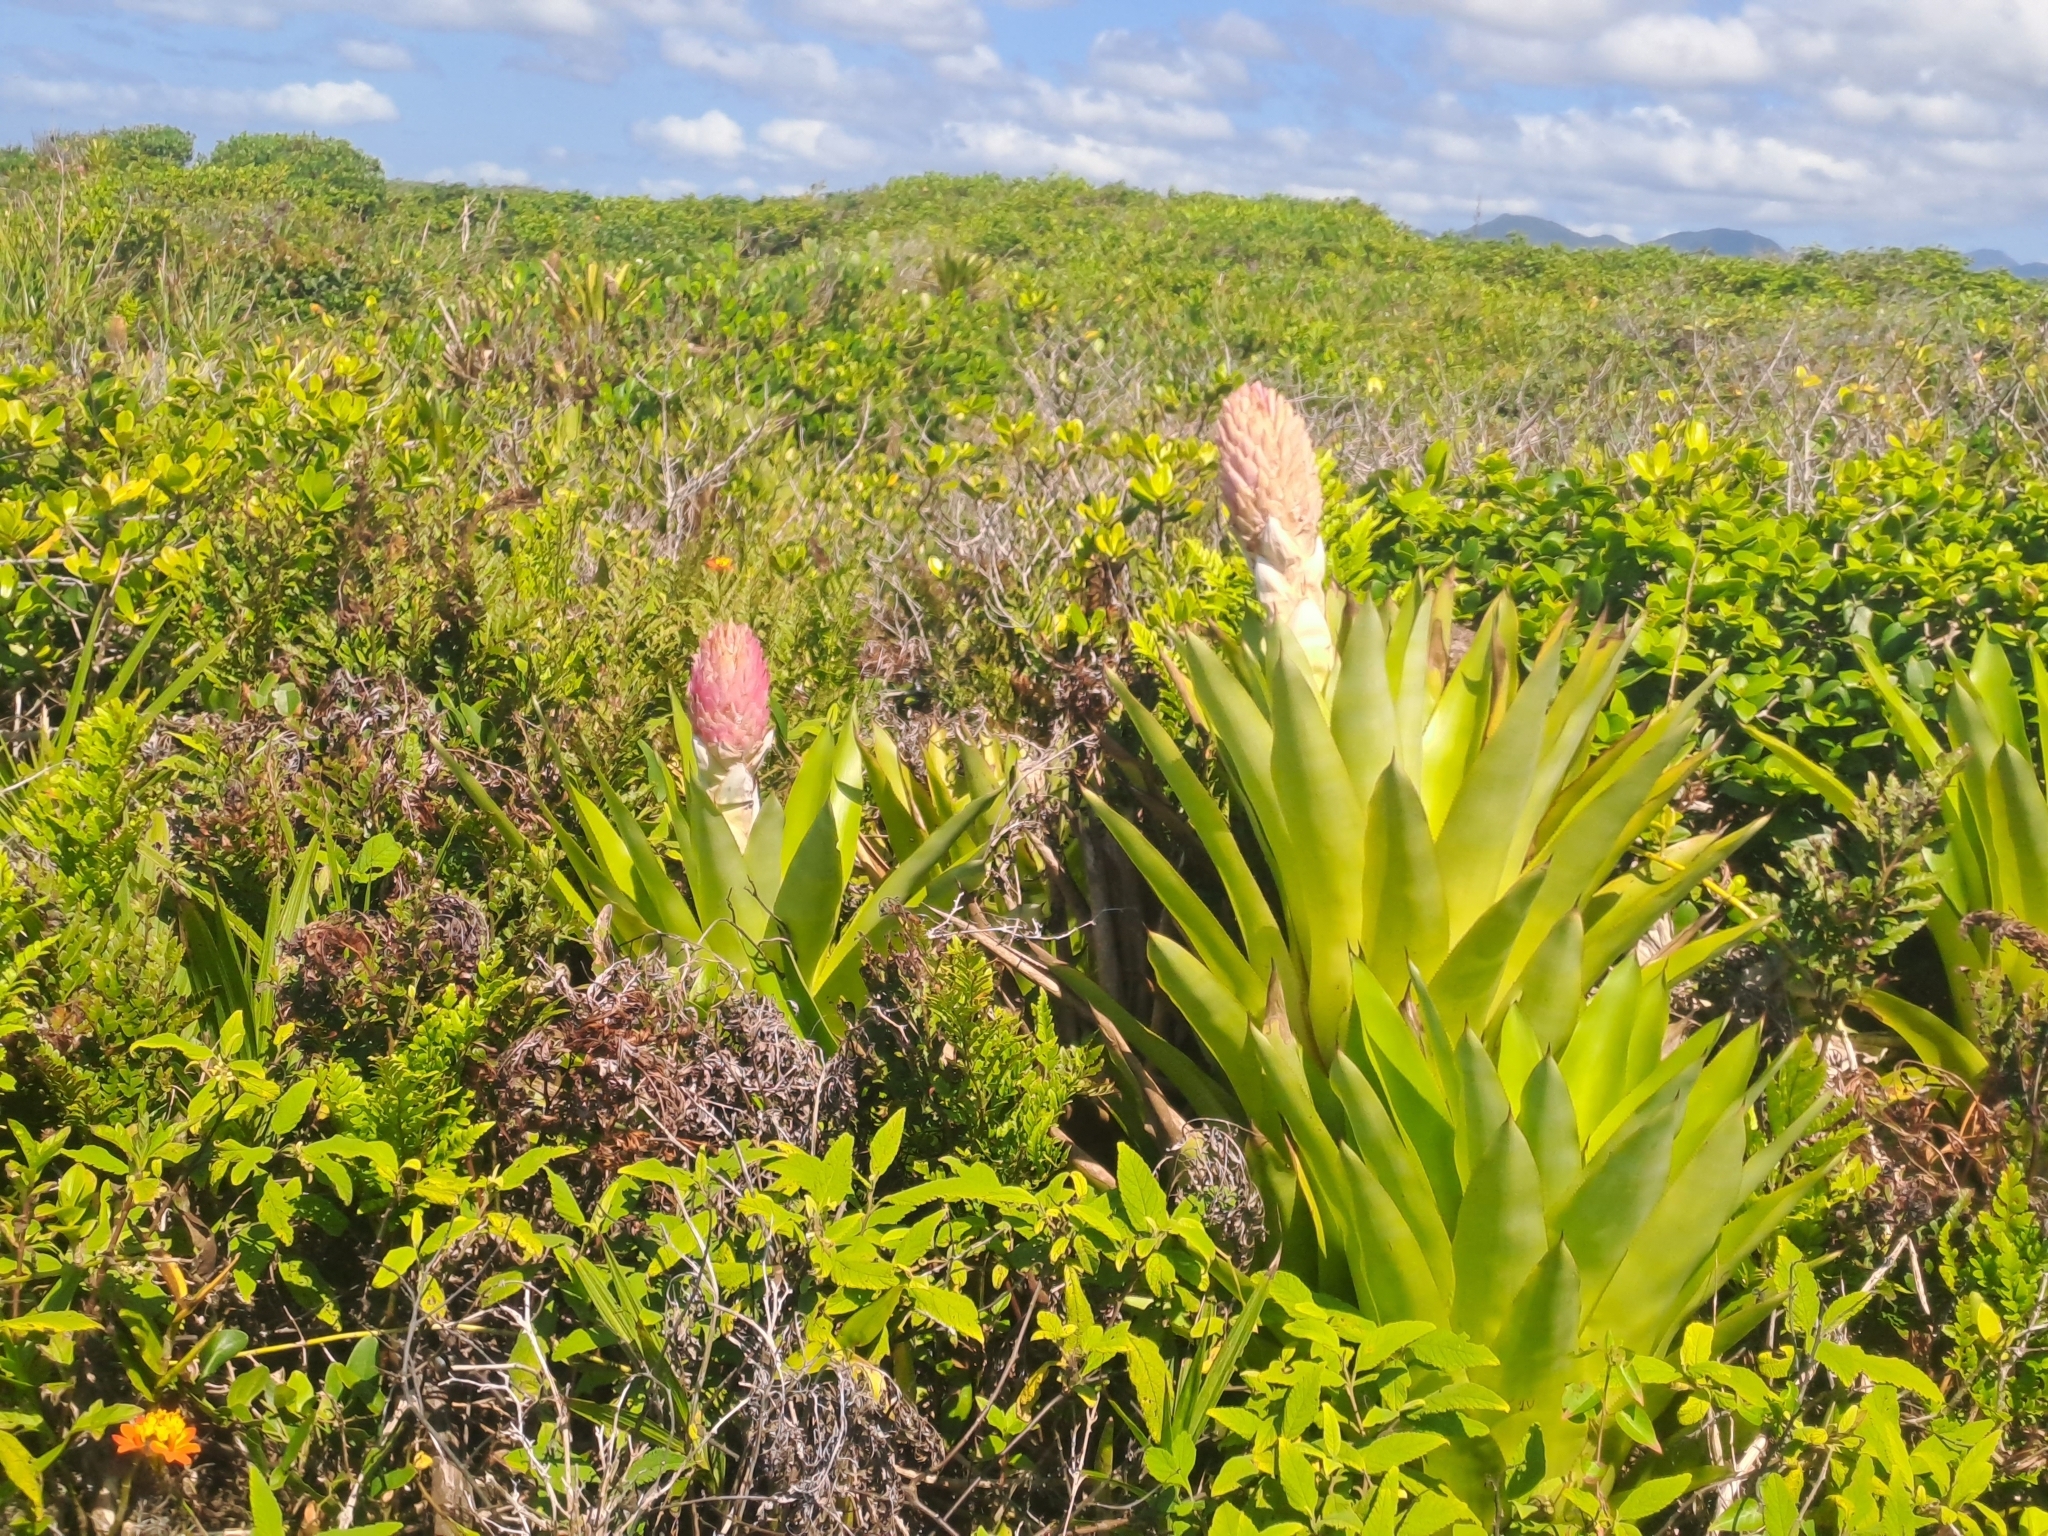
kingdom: Plantae
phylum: Tracheophyta
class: Liliopsida
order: Poales
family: Bromeliaceae
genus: Quesnelia
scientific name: Quesnelia arvensis
